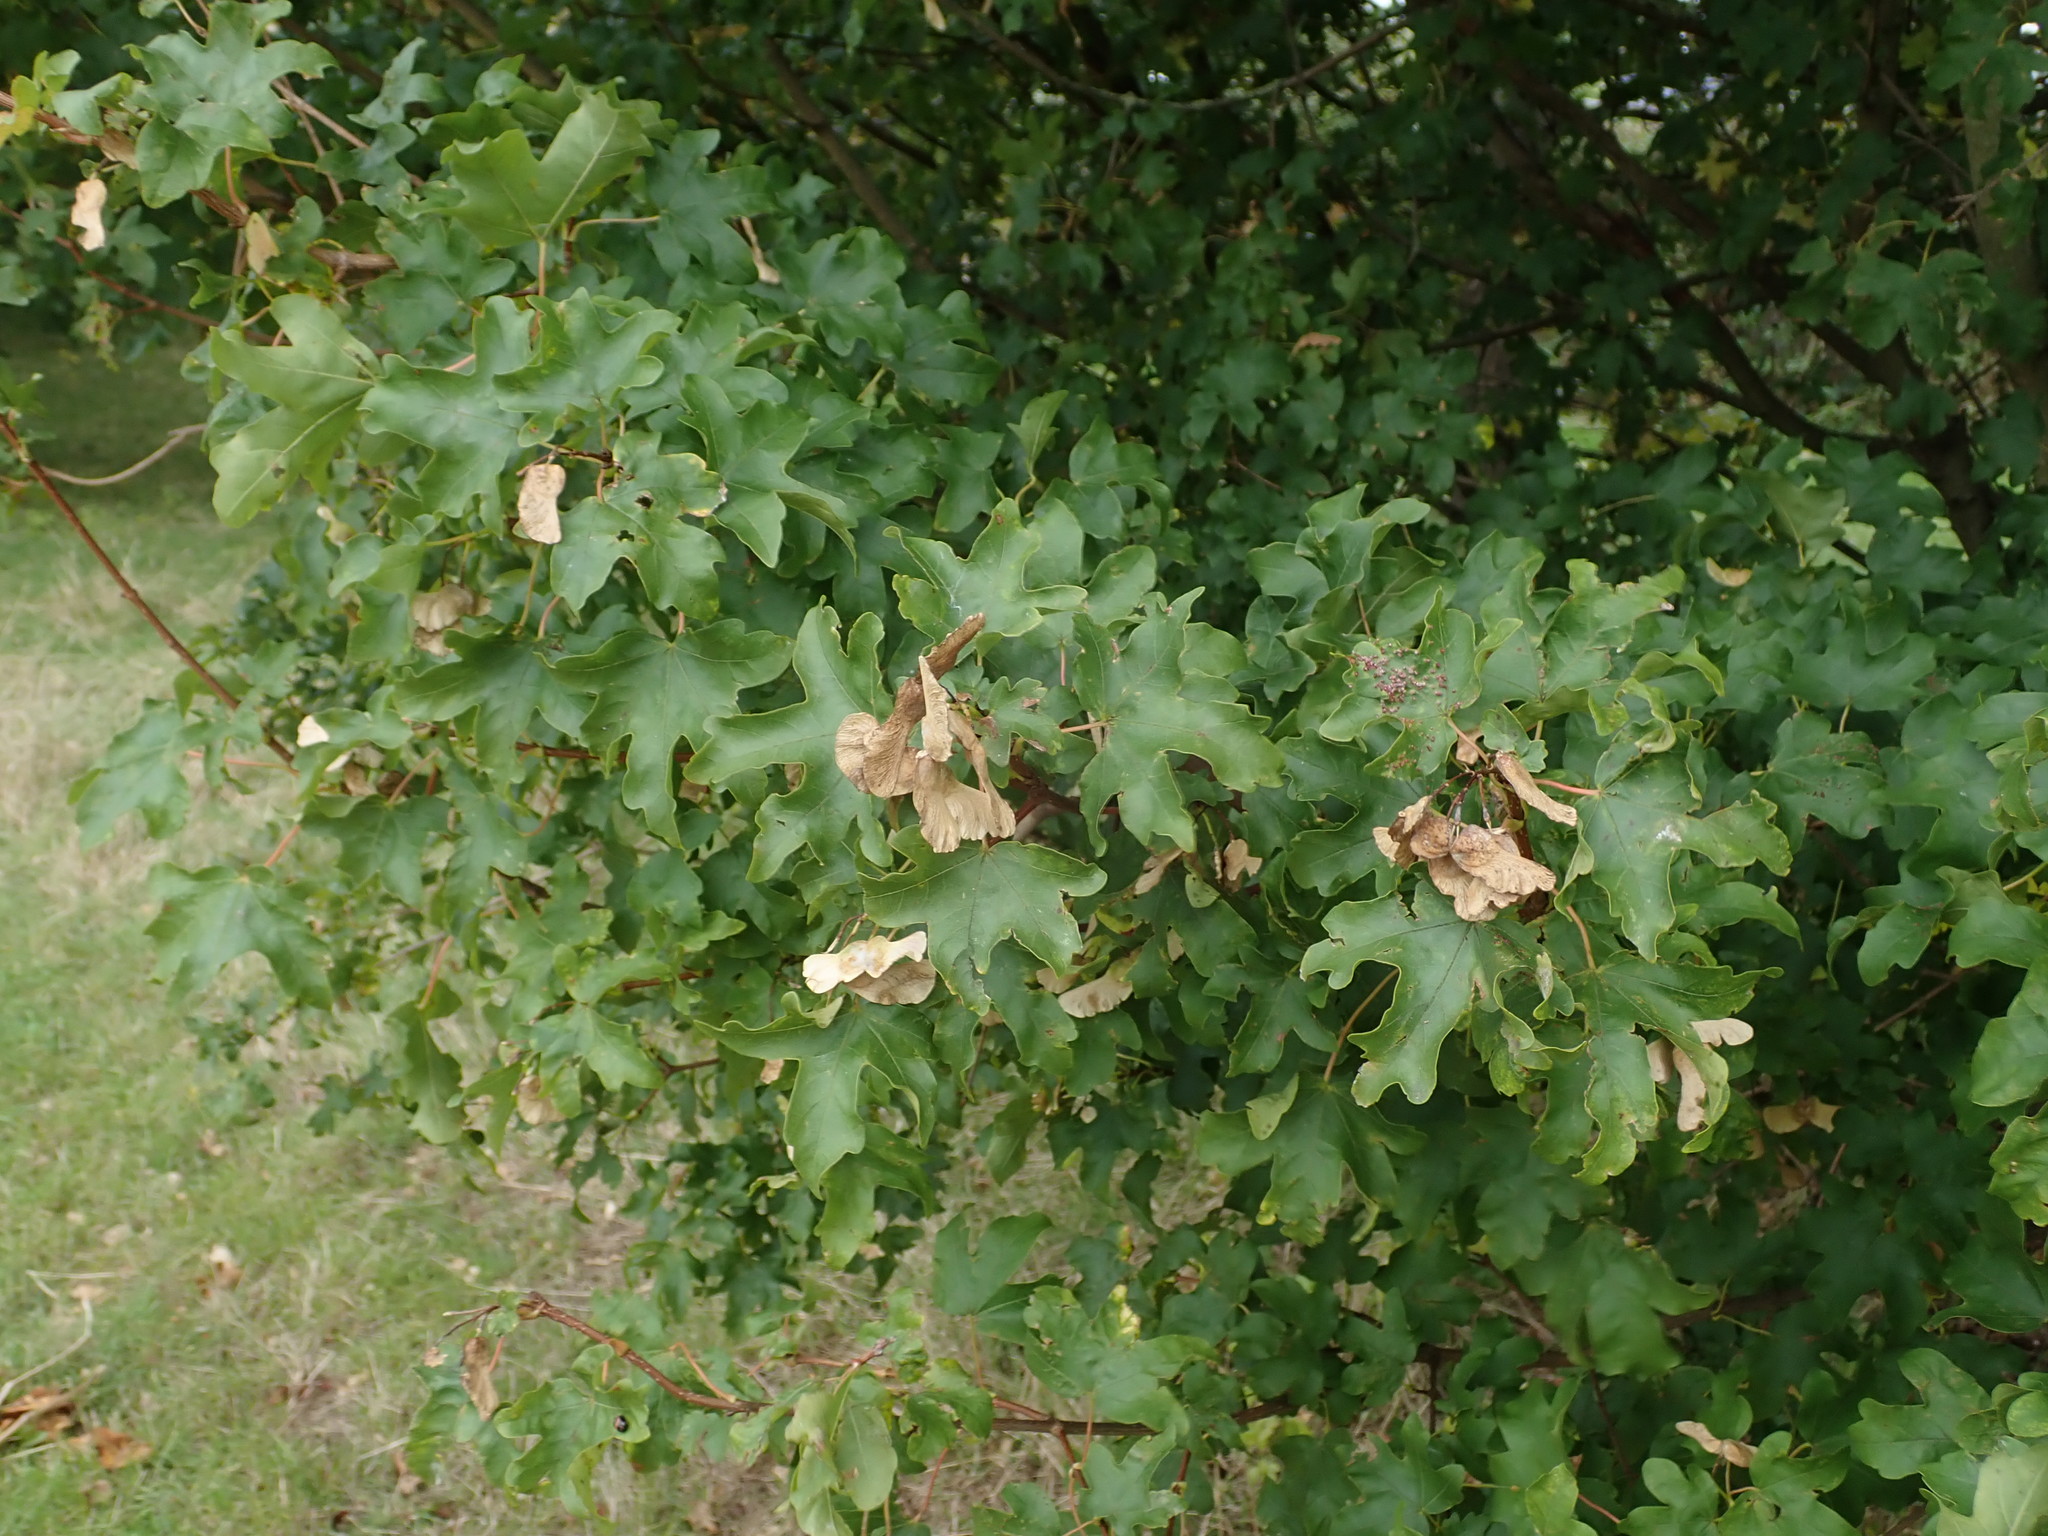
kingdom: Plantae
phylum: Tracheophyta
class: Magnoliopsida
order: Sapindales
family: Sapindaceae
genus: Acer
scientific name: Acer campestre
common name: Field maple
